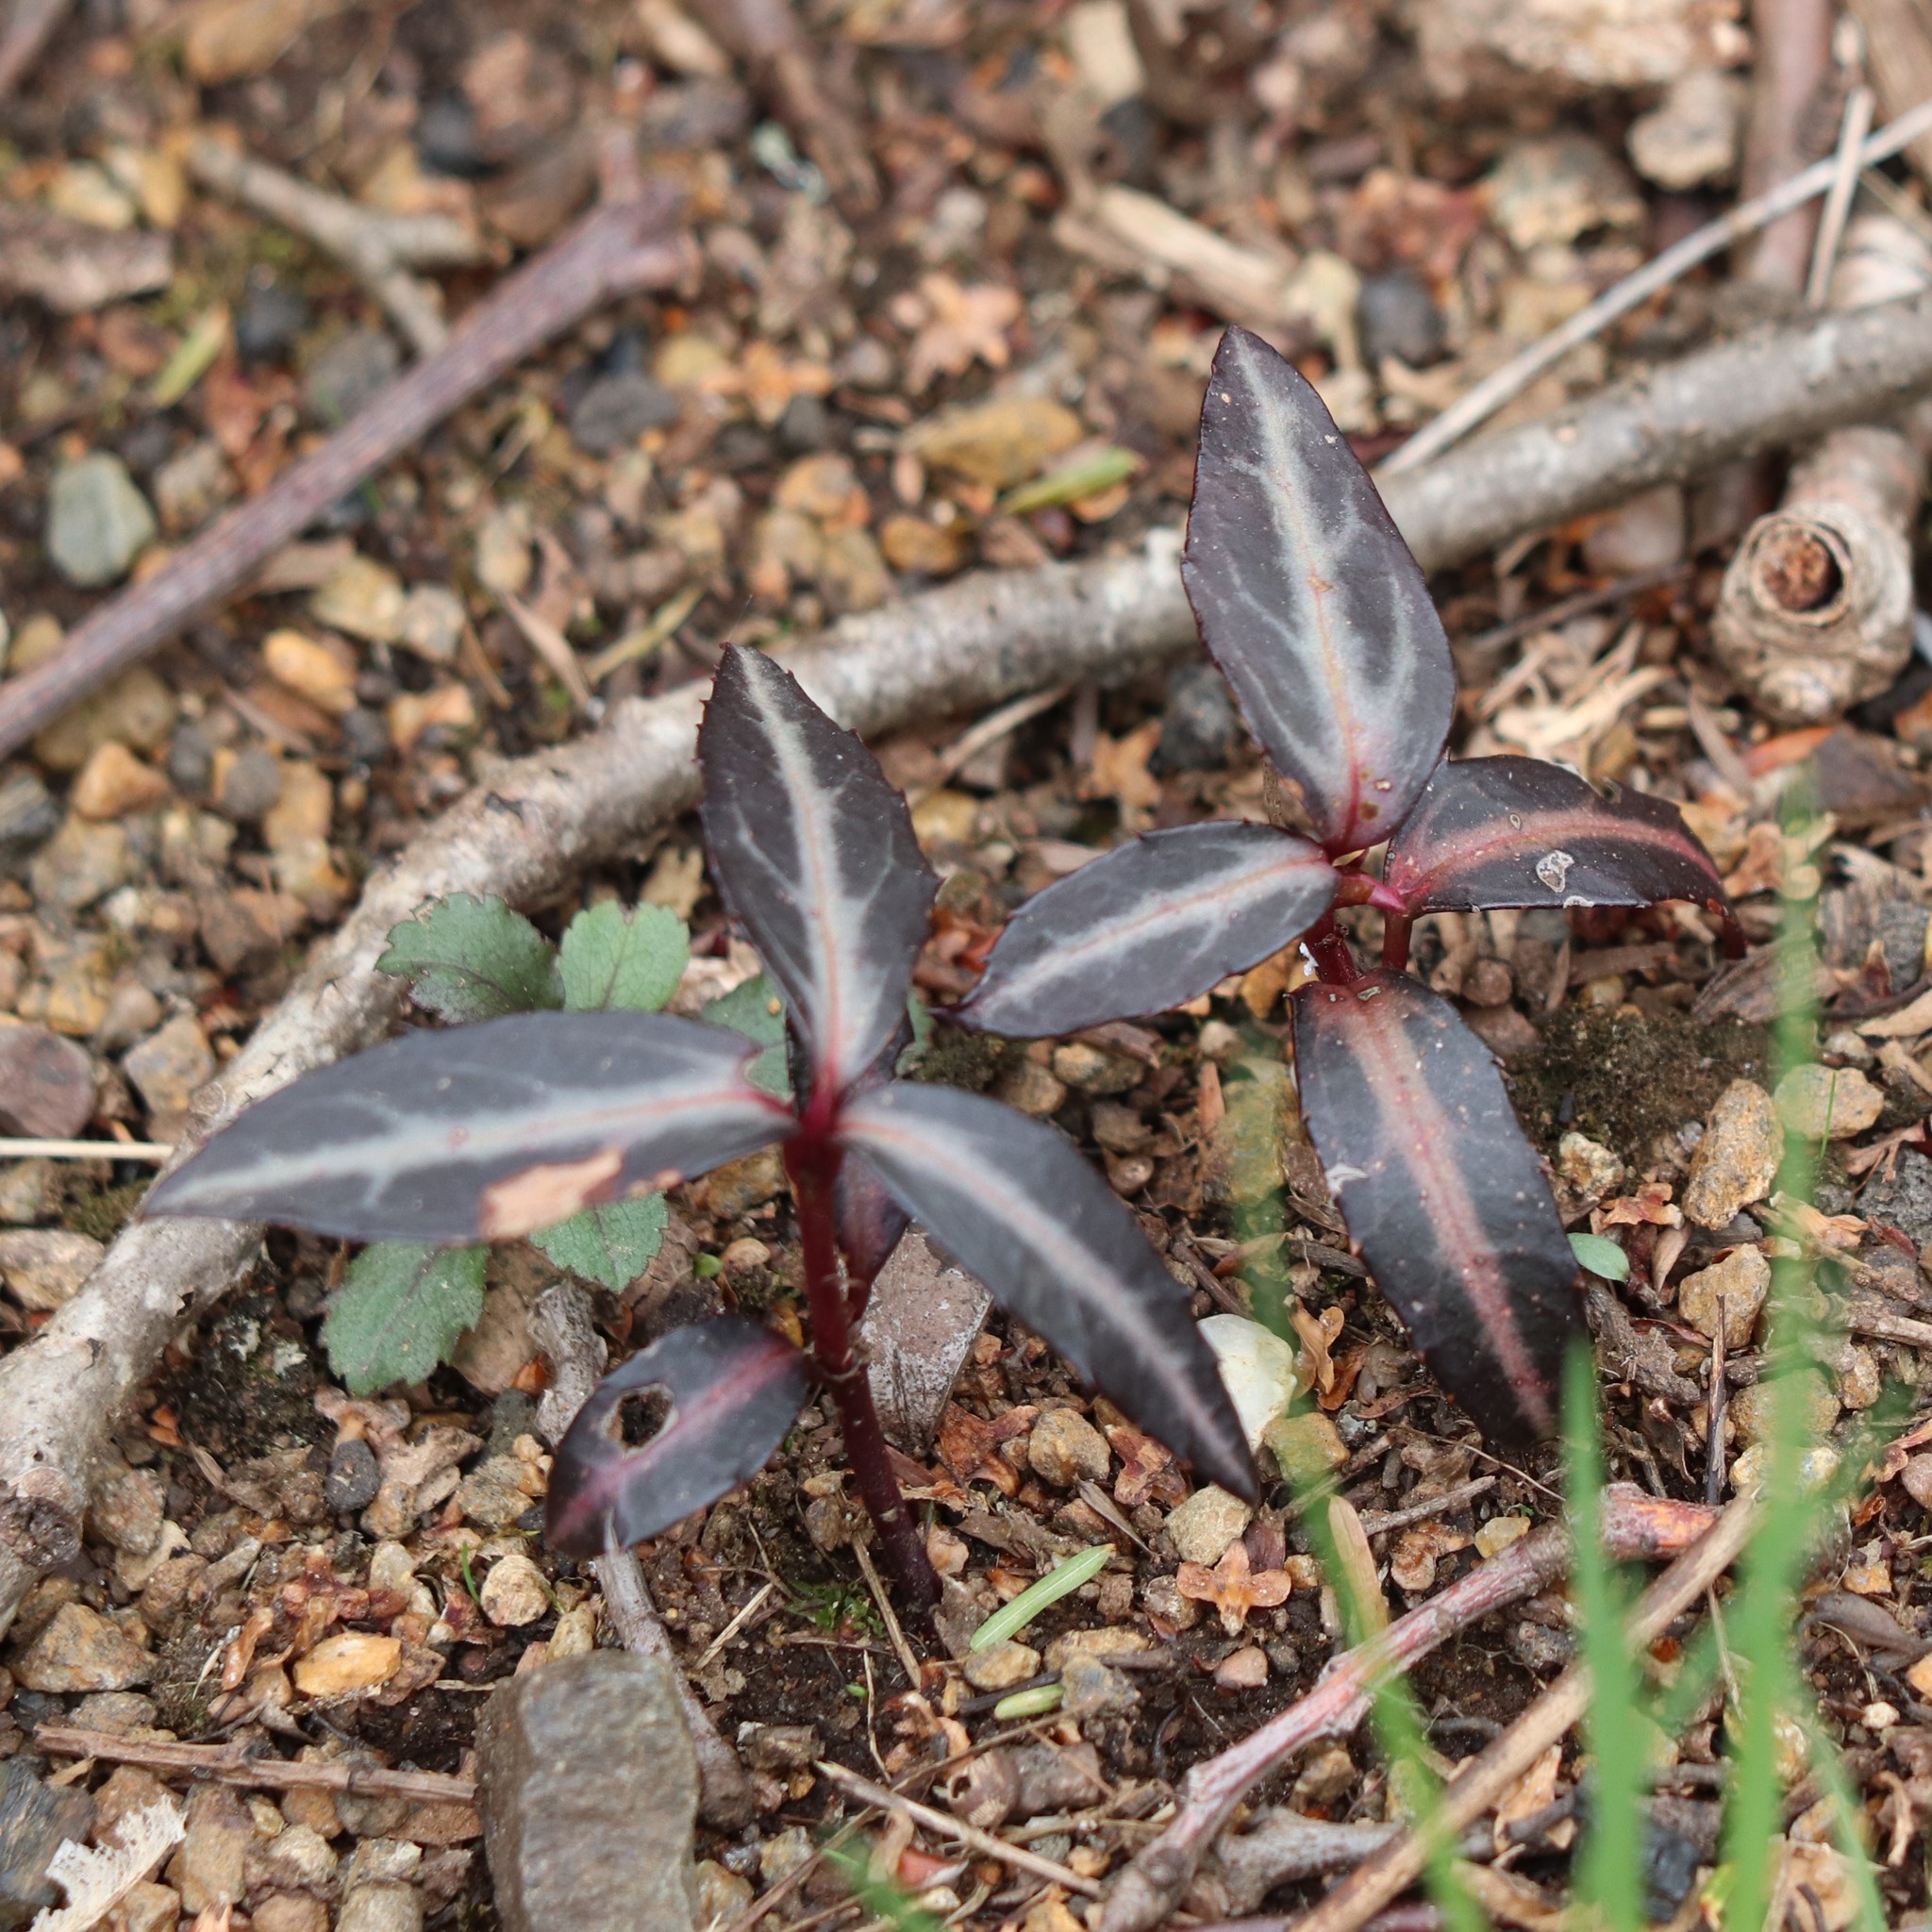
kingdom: Plantae
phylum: Tracheophyta
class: Magnoliopsida
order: Ericales
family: Ericaceae
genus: Chimaphila
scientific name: Chimaphila maculata
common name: Spotted pipsissewa
